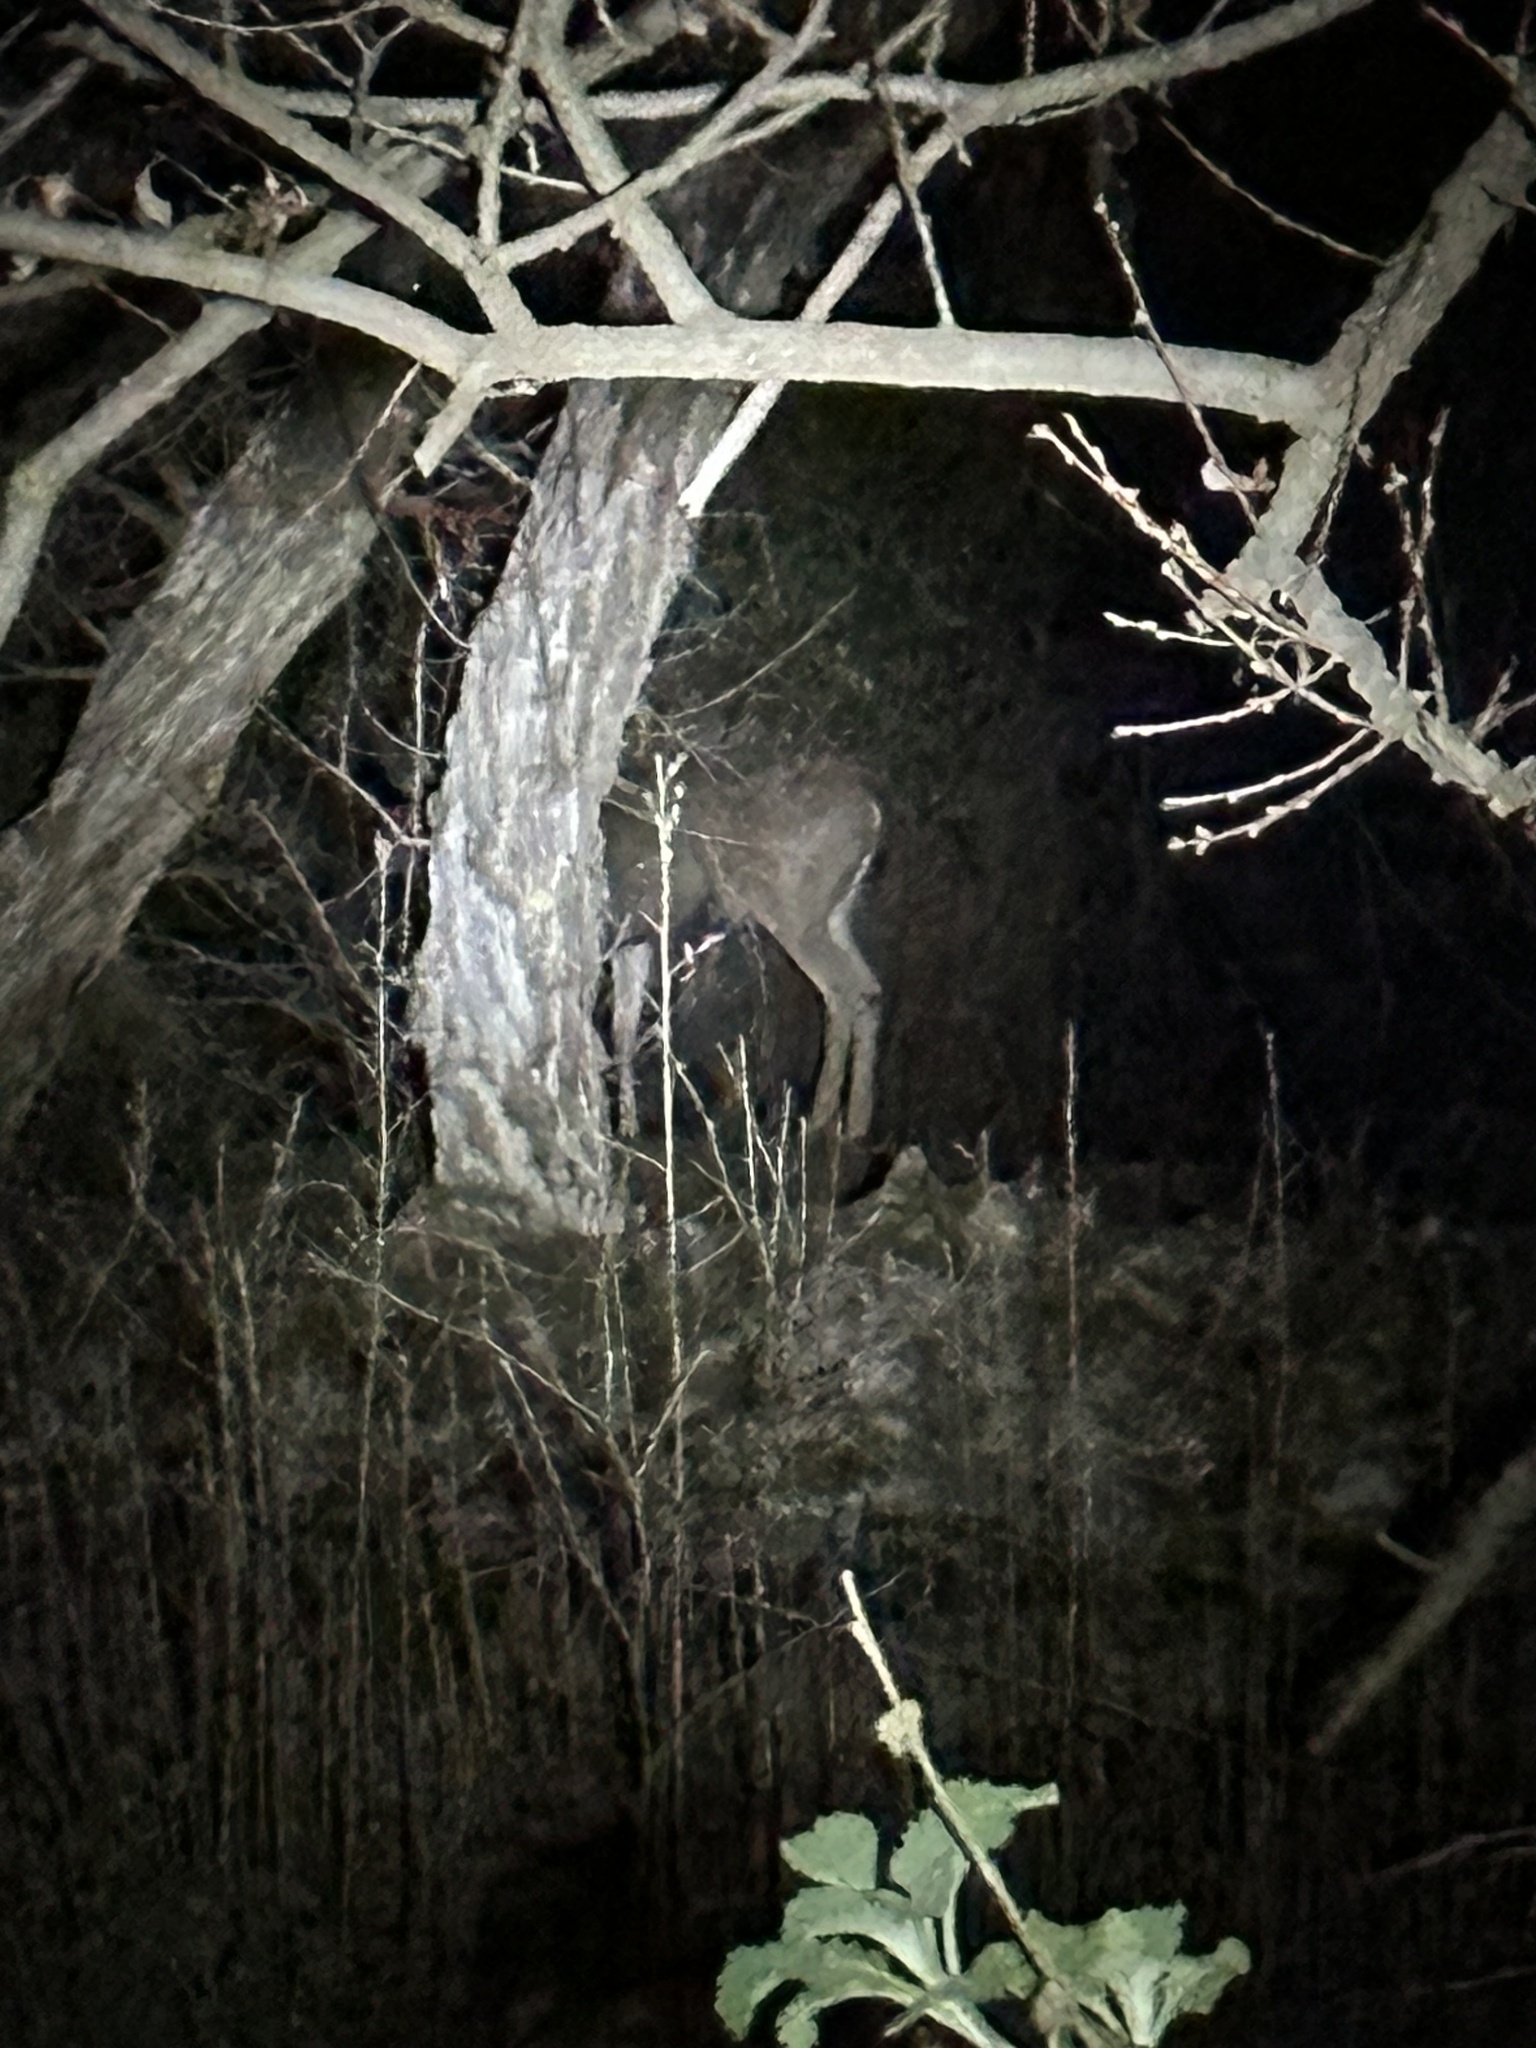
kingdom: Animalia
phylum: Chordata
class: Mammalia
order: Artiodactyla
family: Cervidae
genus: Odocoileus
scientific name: Odocoileus hemionus
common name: Mule deer
